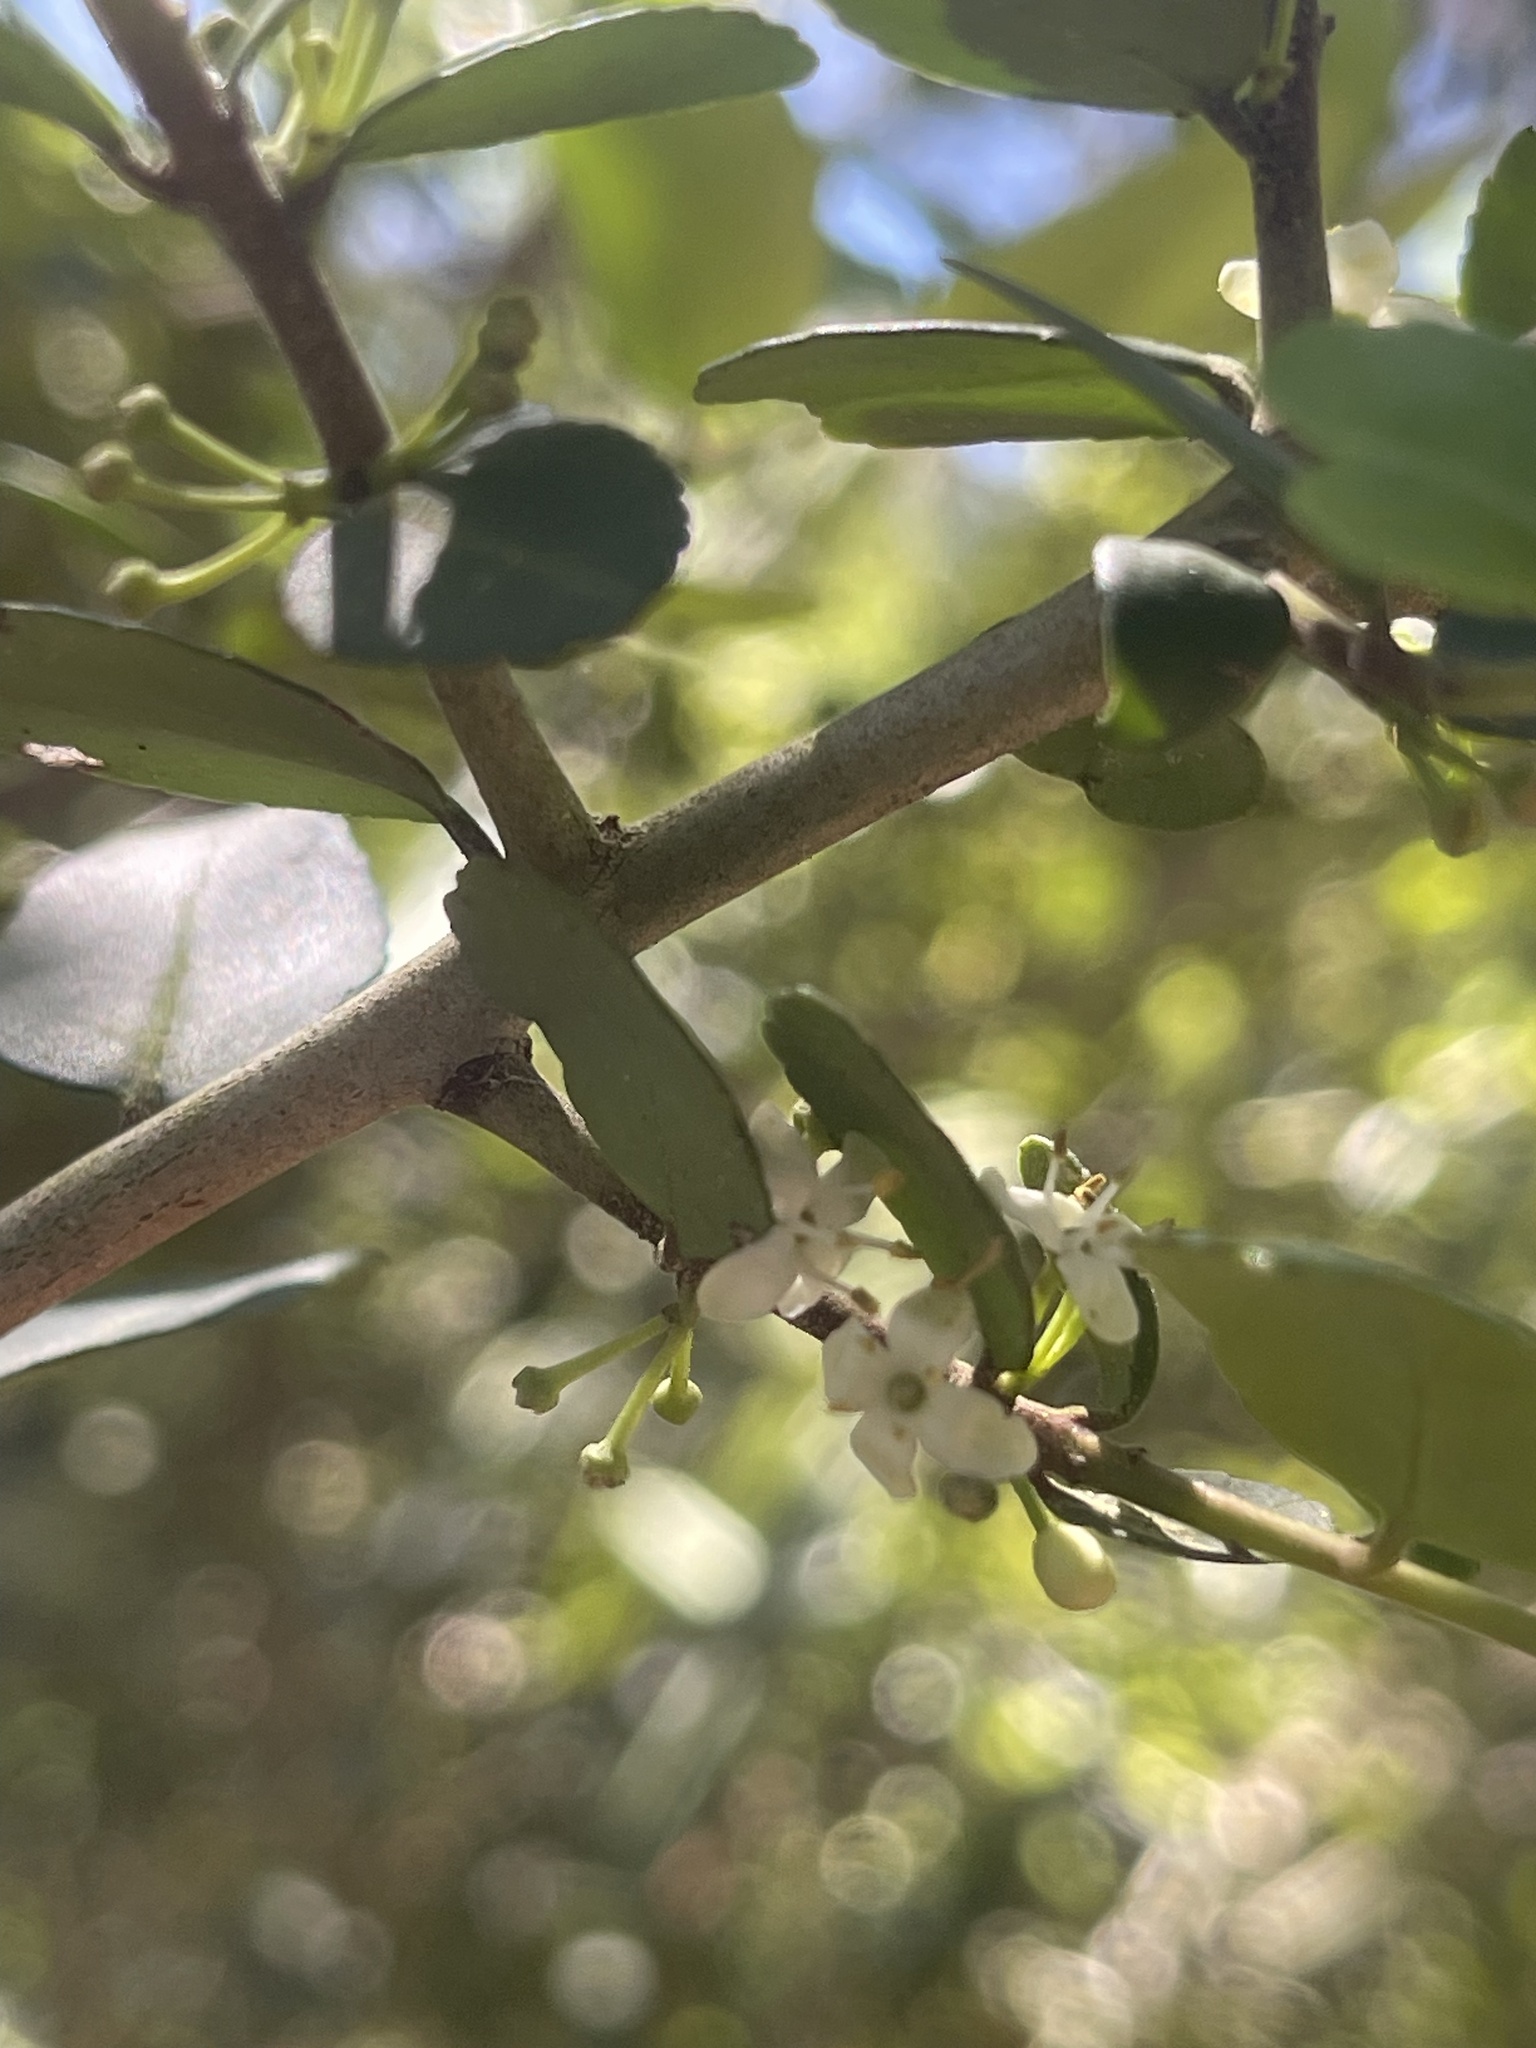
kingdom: Plantae
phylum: Tracheophyta
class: Magnoliopsida
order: Aquifoliales
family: Aquifoliaceae
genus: Ilex
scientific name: Ilex vomitoria
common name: Yaupon holly
